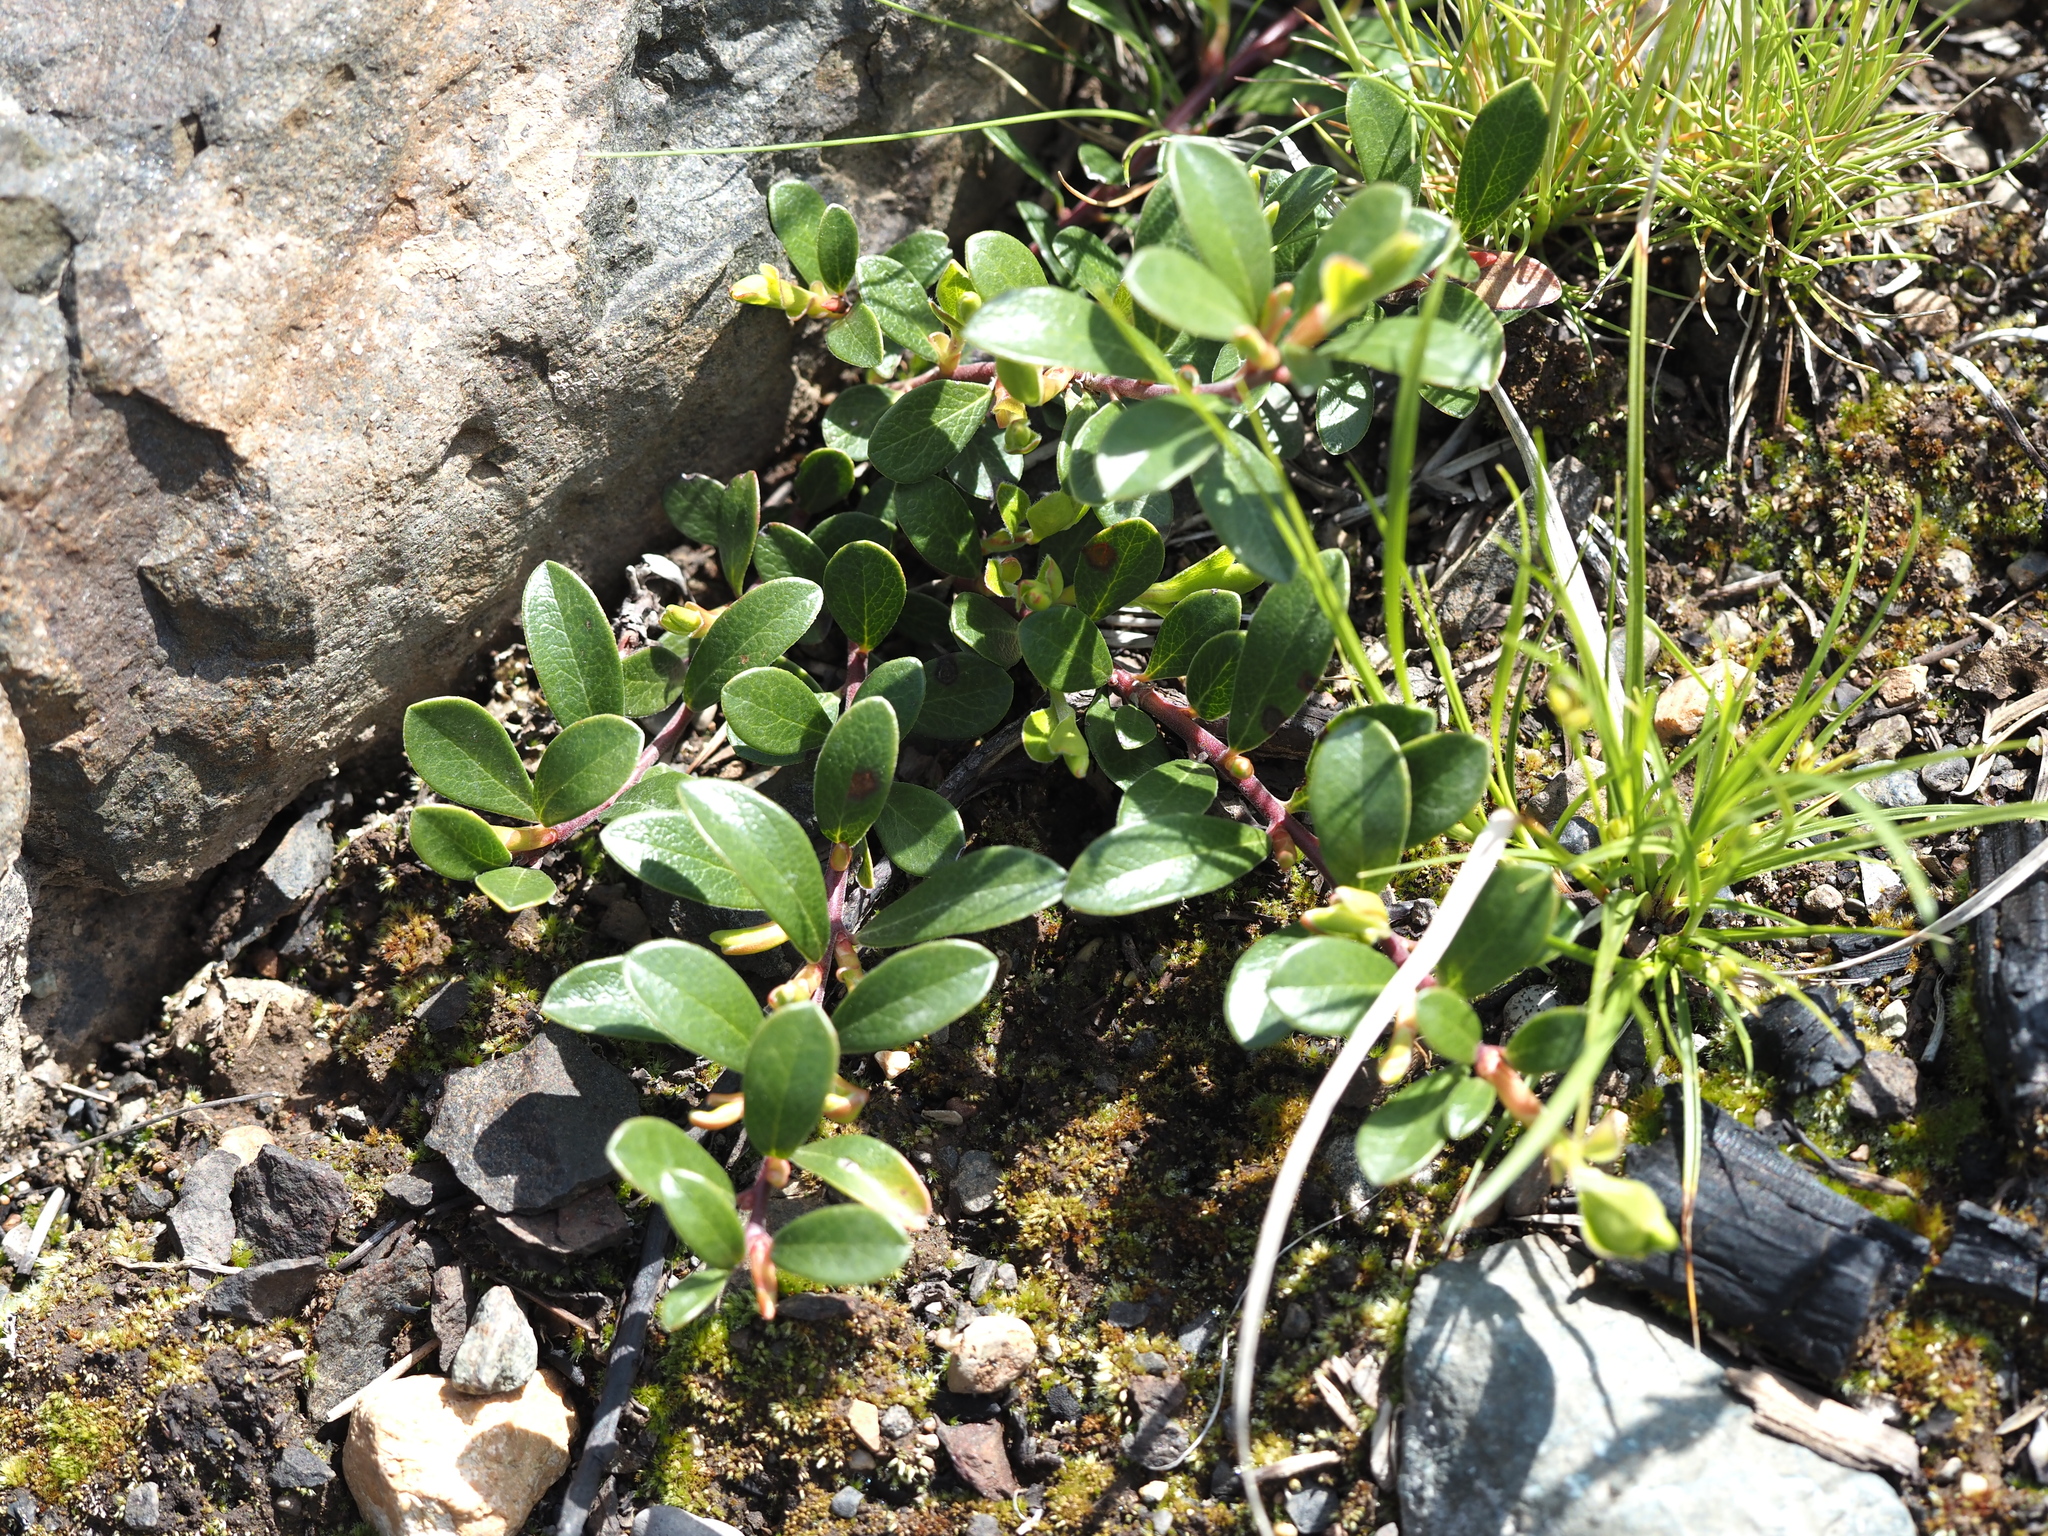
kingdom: Plantae
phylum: Tracheophyta
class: Magnoliopsida
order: Ericales
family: Ericaceae
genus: Arctostaphylos
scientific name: Arctostaphylos uva-ursi
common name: Bearberry
